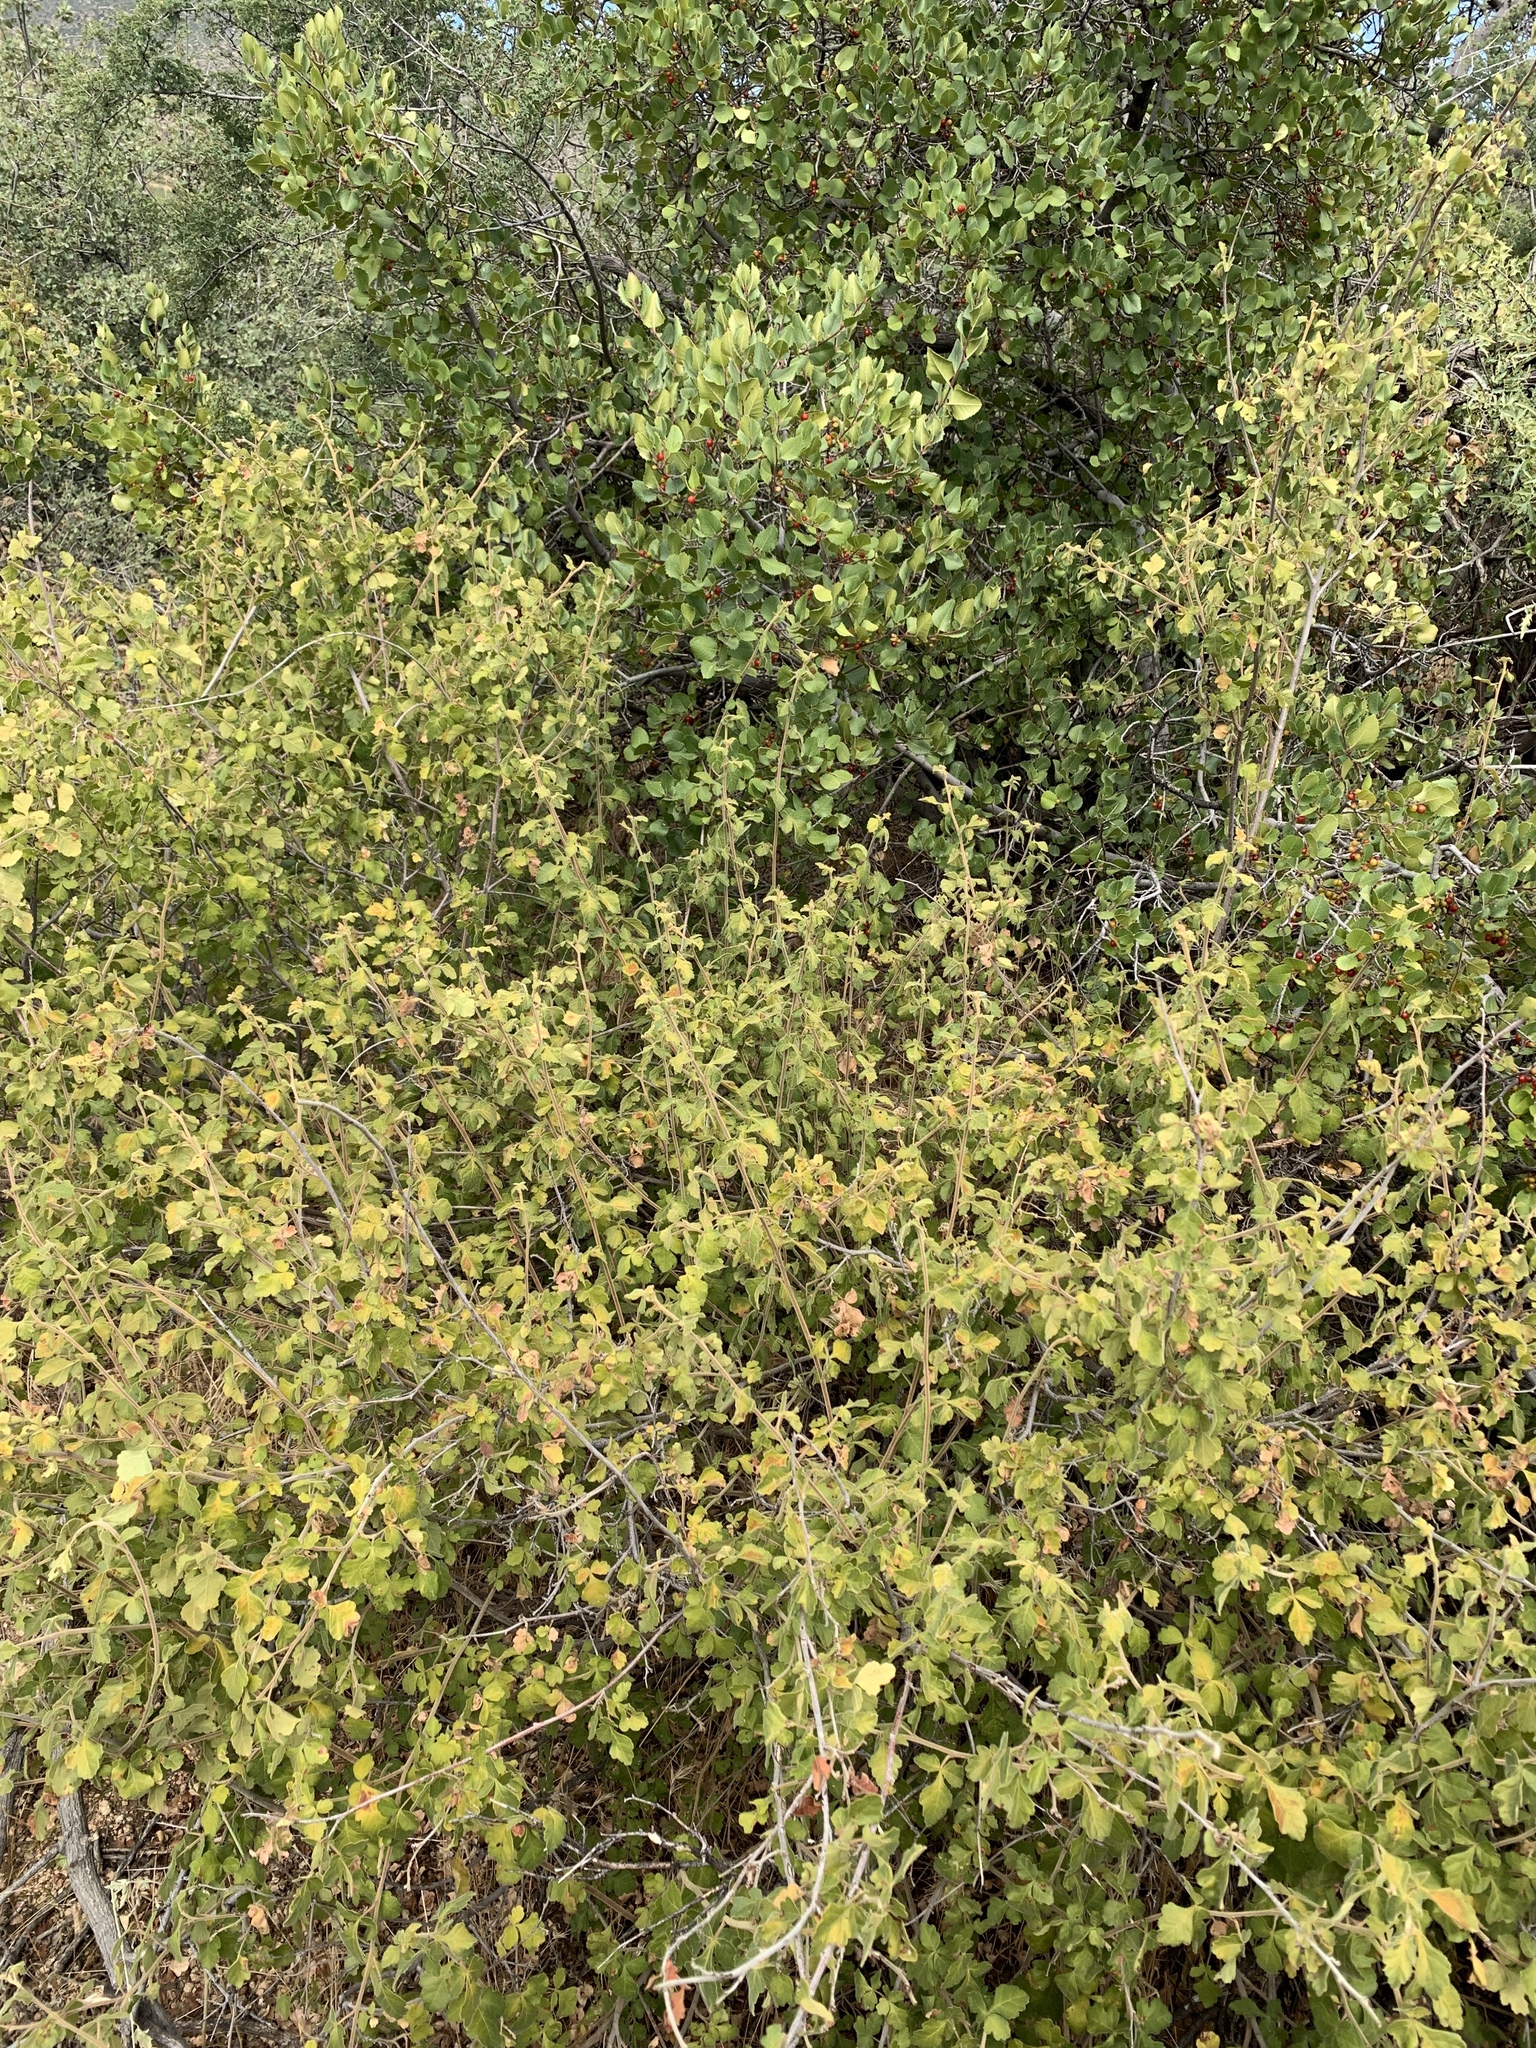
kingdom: Plantae
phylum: Tracheophyta
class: Magnoliopsida
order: Rosales
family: Rhamnaceae
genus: Endotropis
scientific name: Endotropis crocea
